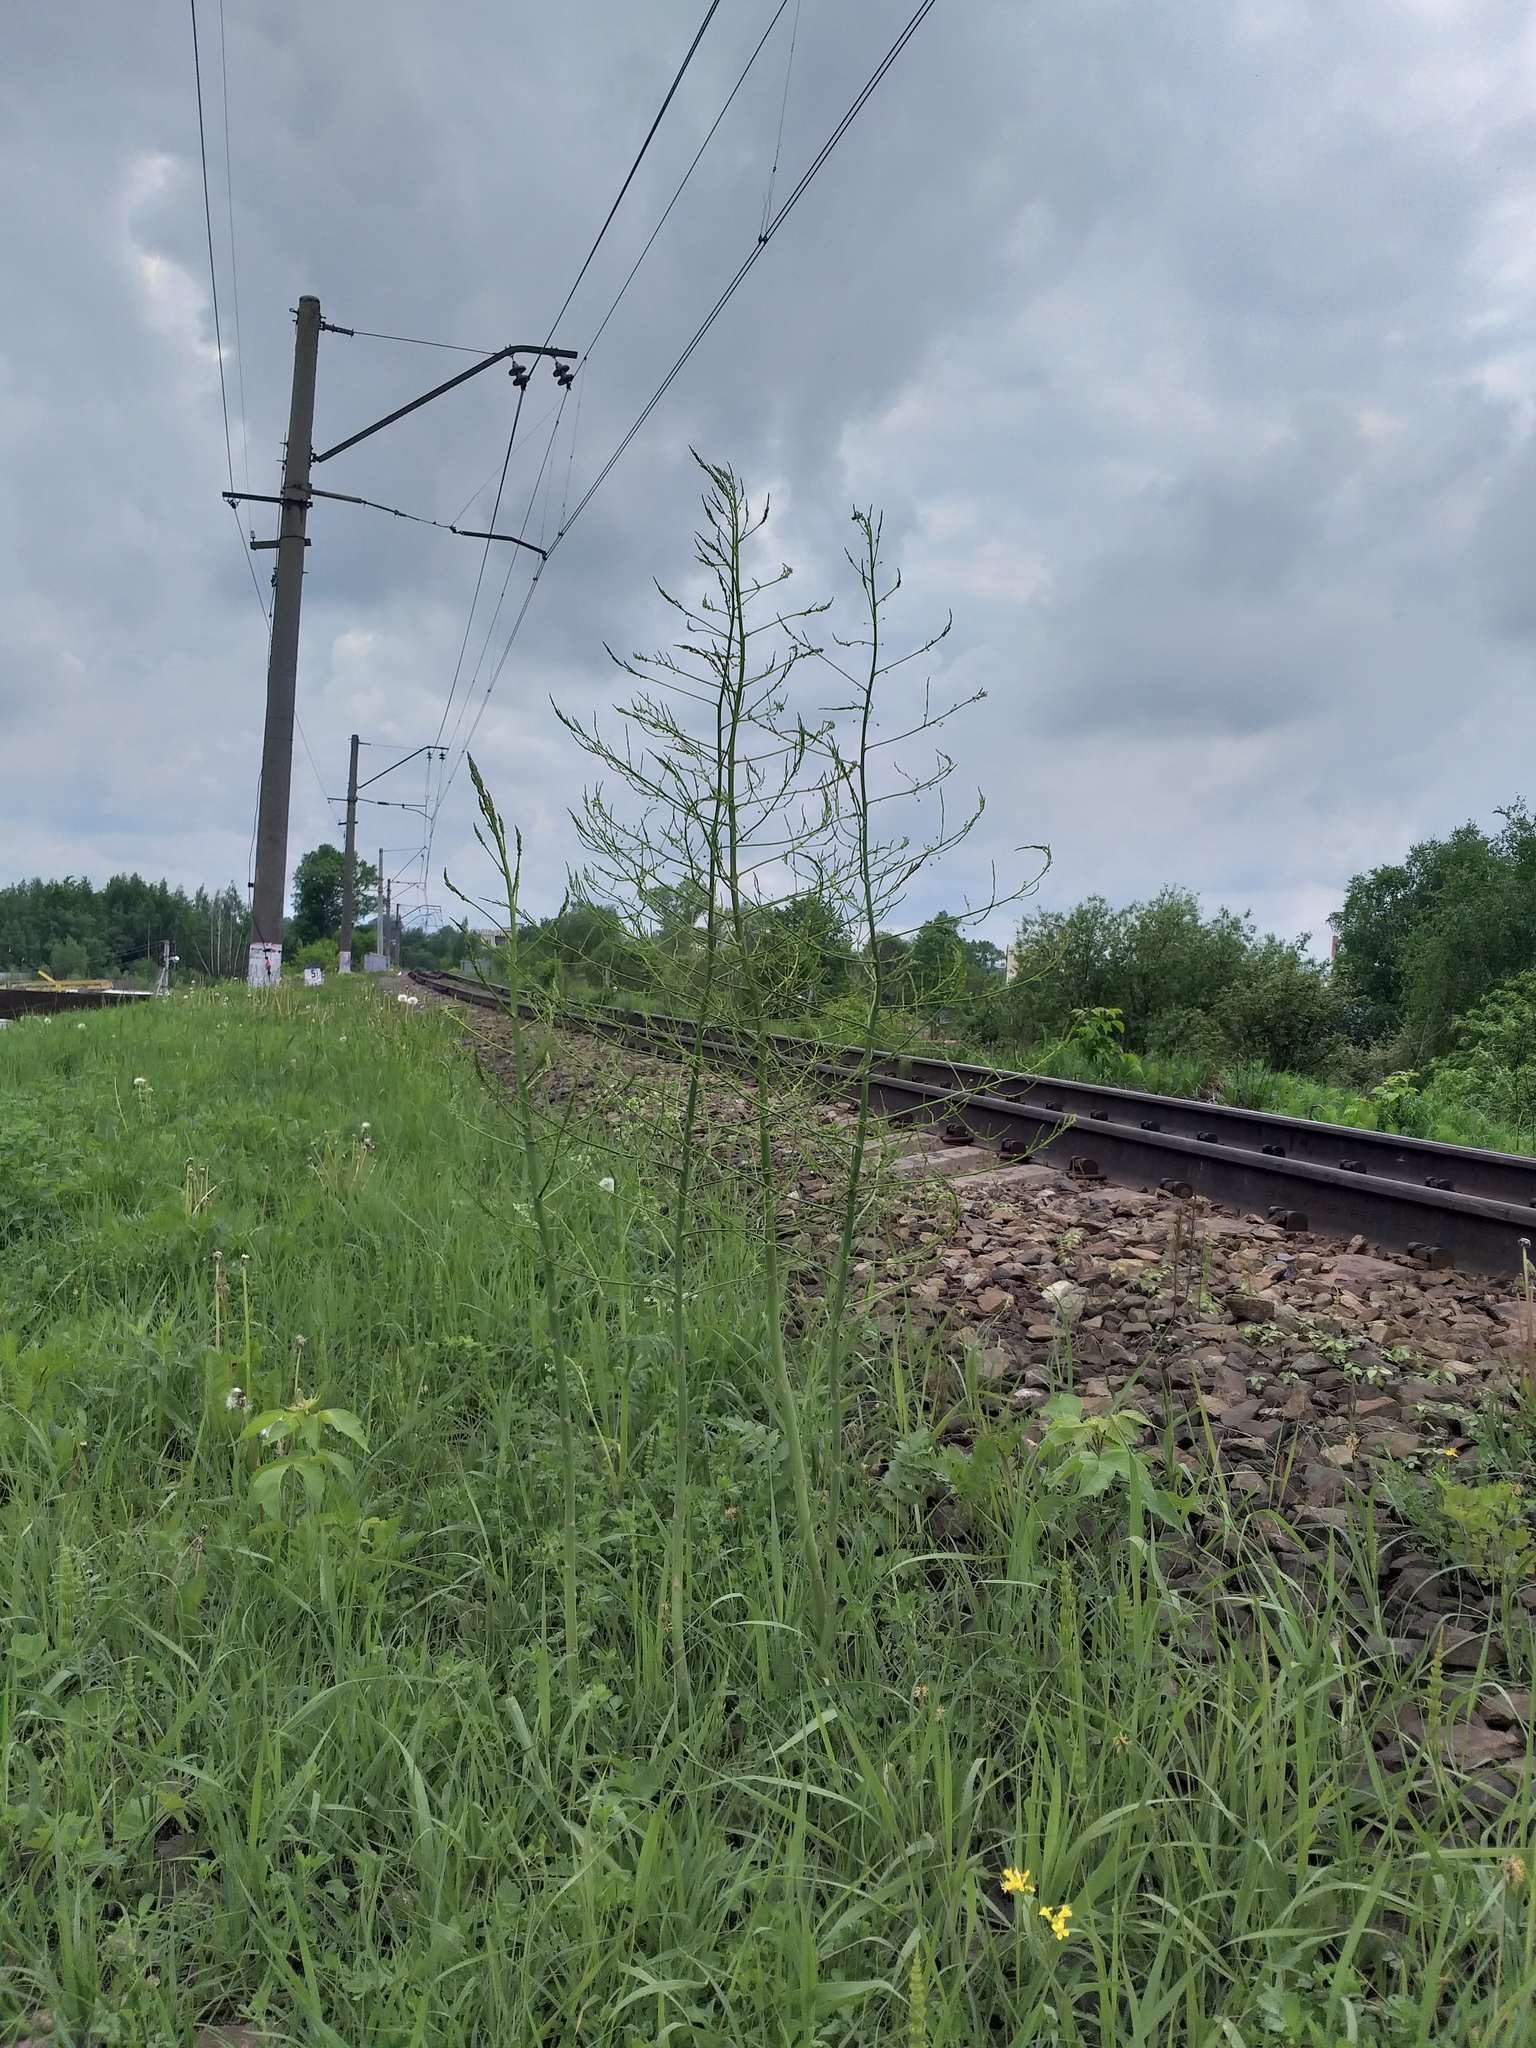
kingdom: Plantae
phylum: Tracheophyta
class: Liliopsida
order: Asparagales
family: Asparagaceae
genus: Asparagus
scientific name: Asparagus officinalis
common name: Garden asparagus
